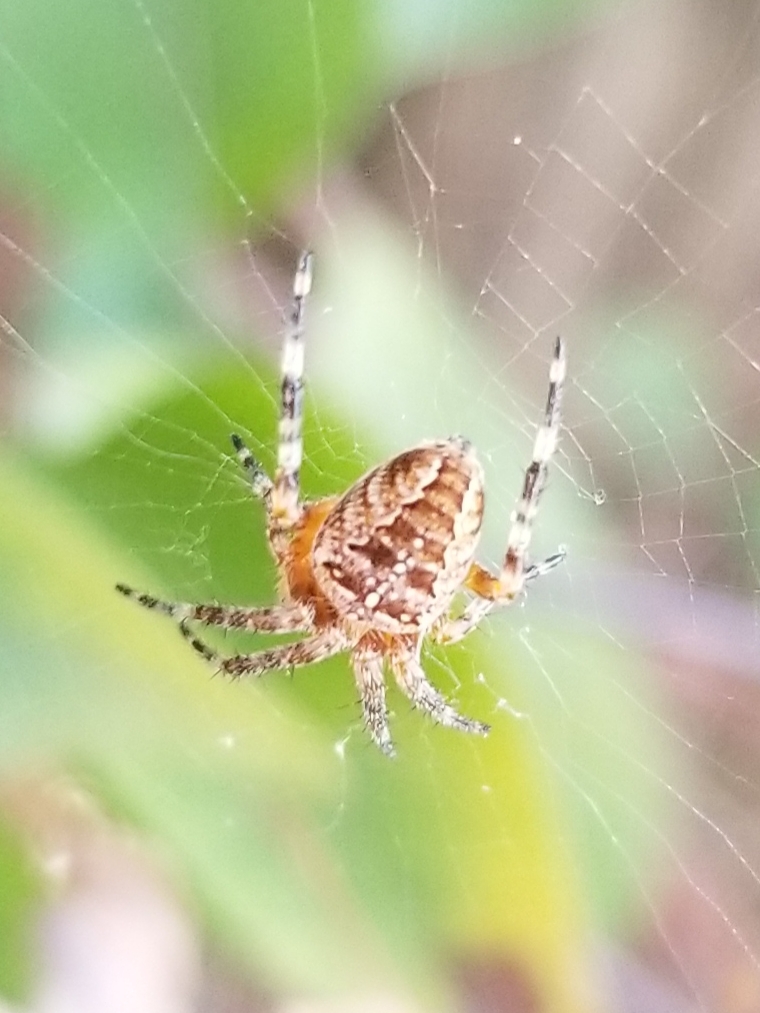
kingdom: Animalia
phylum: Arthropoda
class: Arachnida
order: Araneae
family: Araneidae
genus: Araneus
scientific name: Araneus diadematus
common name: Cross orbweaver
